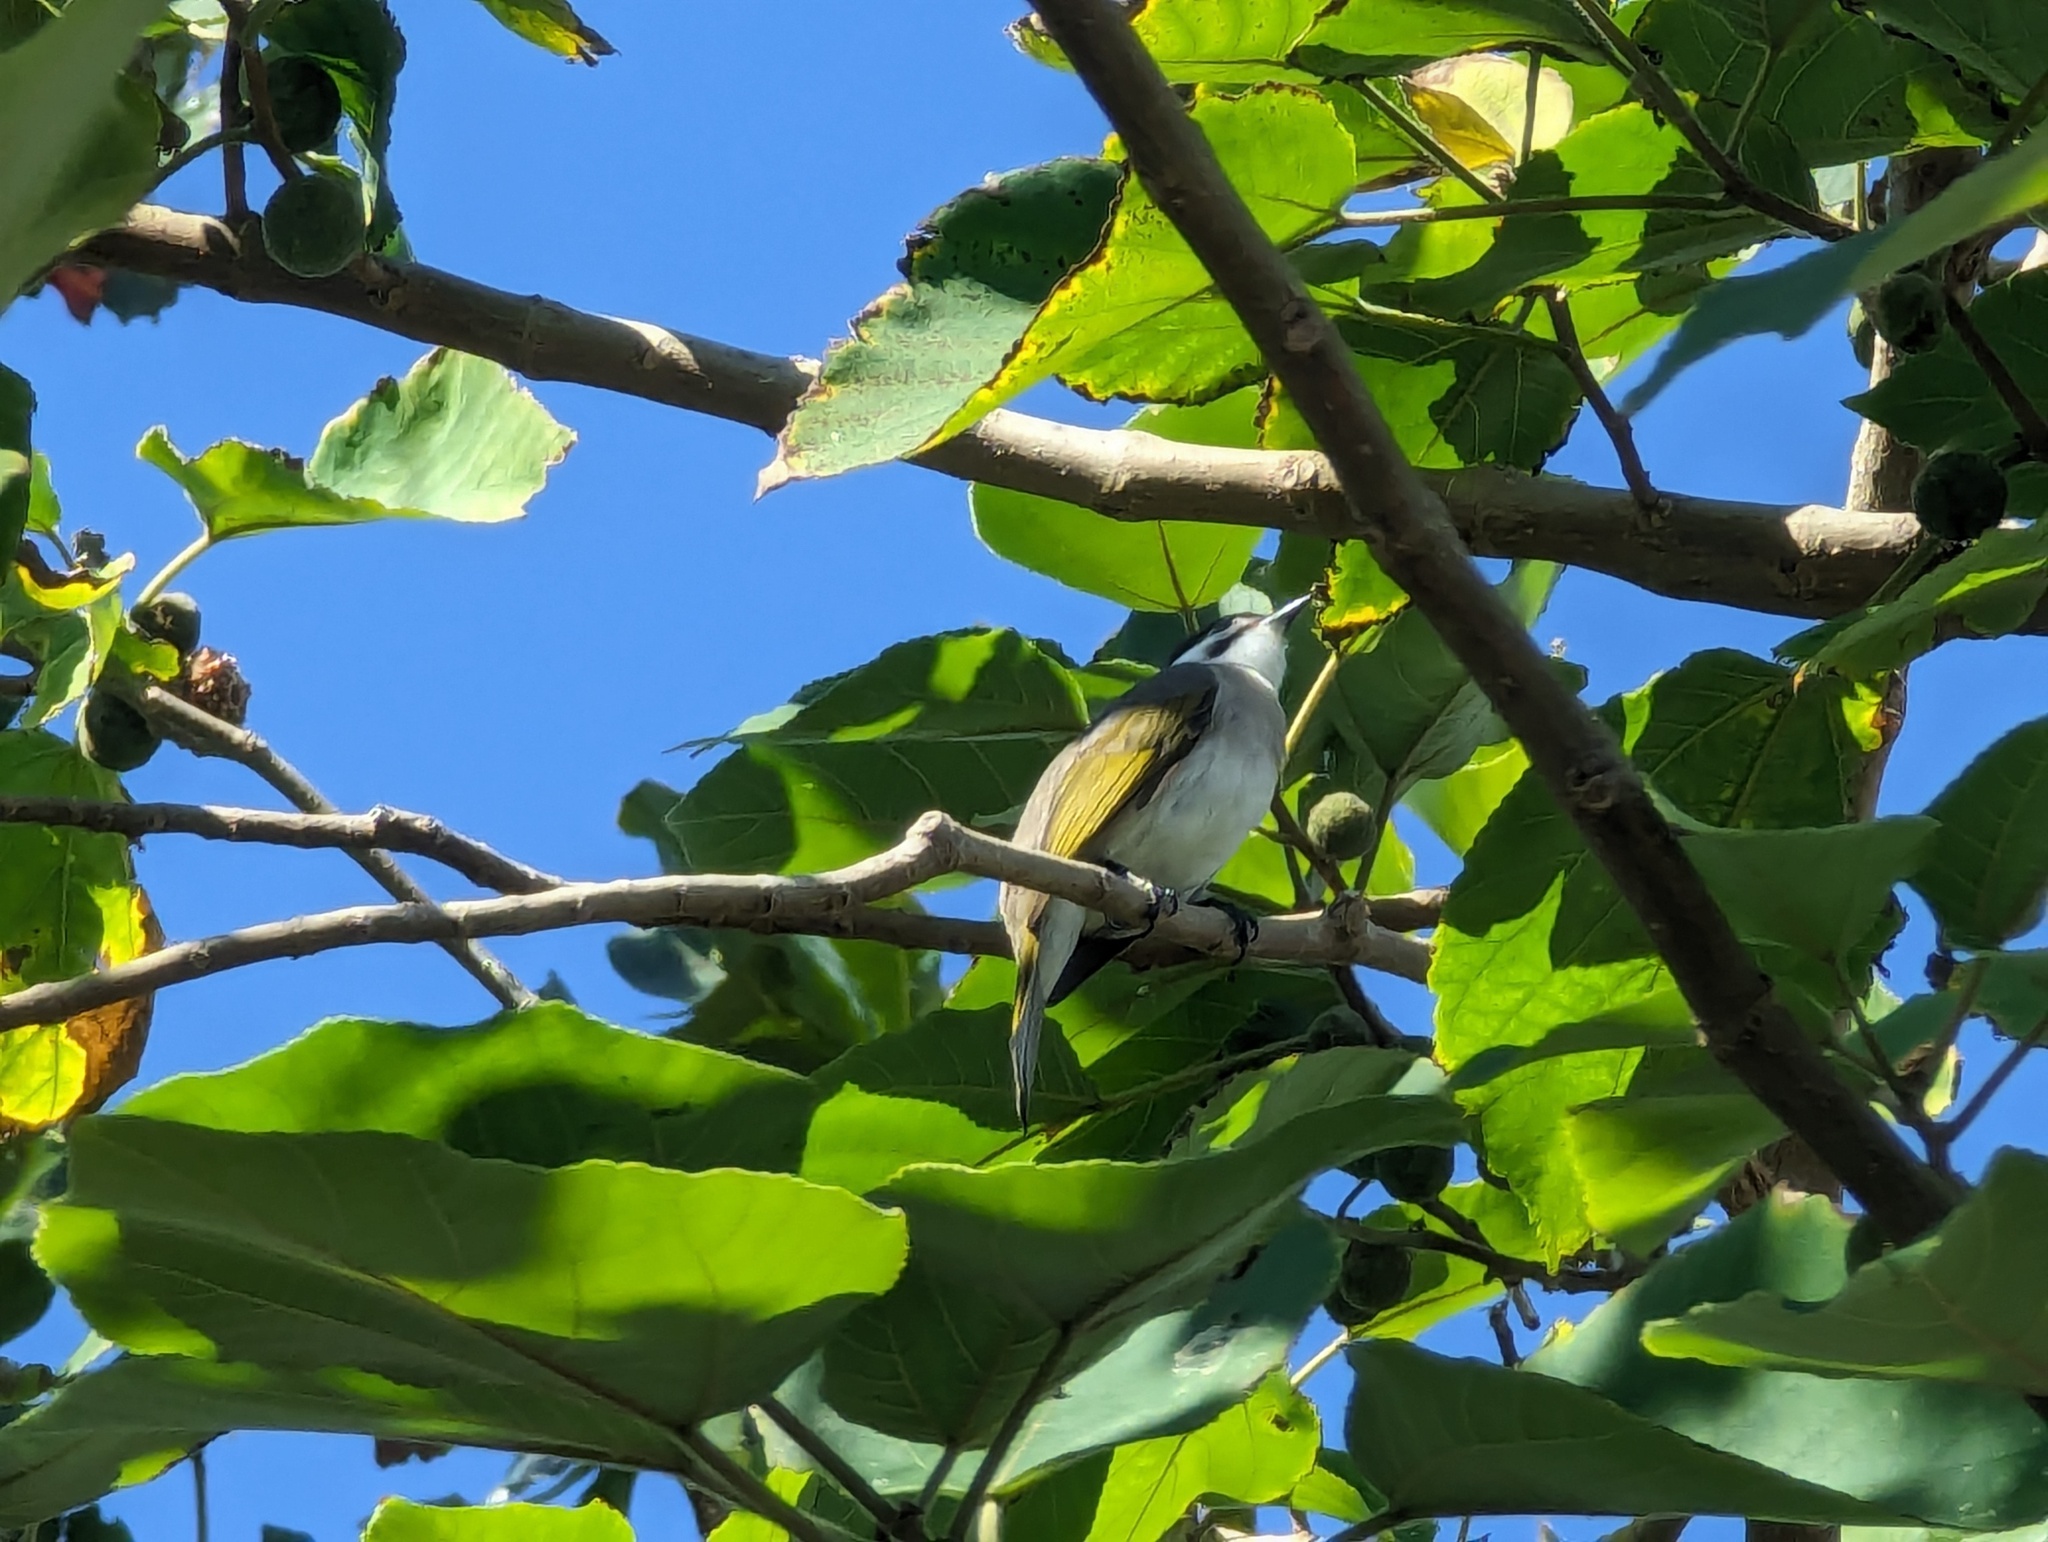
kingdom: Animalia
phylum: Chordata
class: Aves
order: Passeriformes
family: Pycnonotidae
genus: Pycnonotus
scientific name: Pycnonotus taivanus
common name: Styan's bulbul
